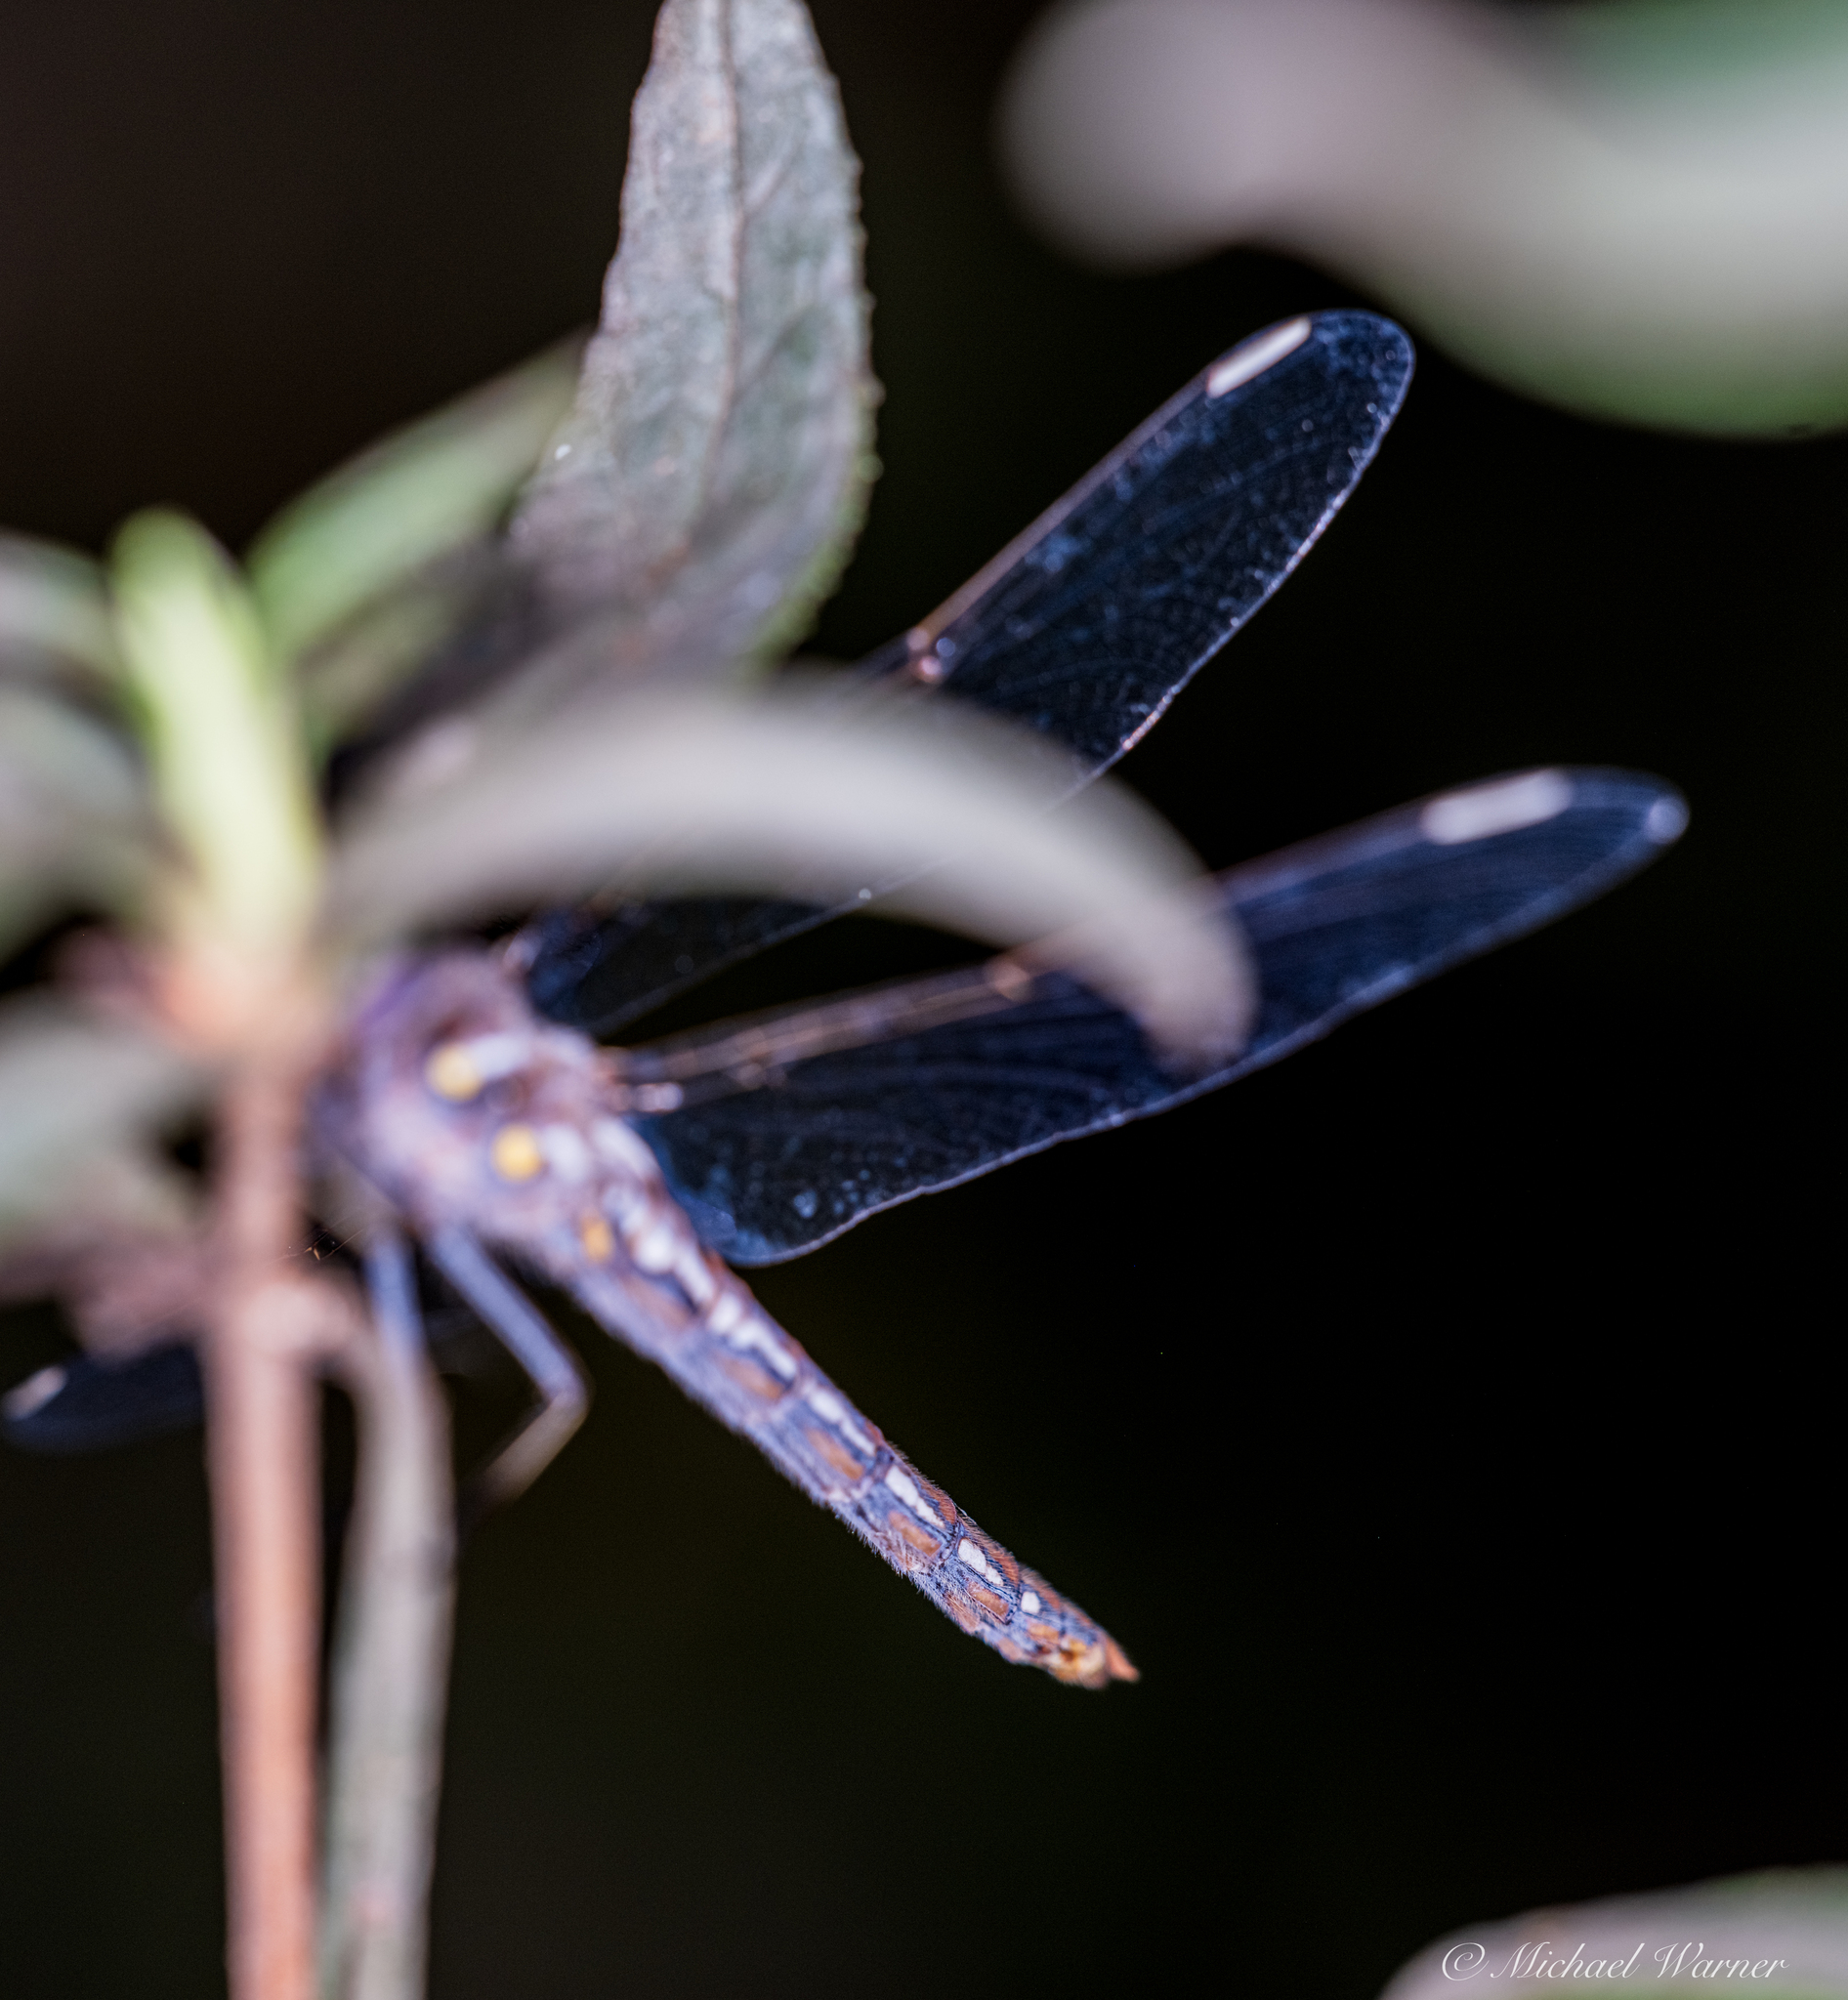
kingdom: Animalia
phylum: Arthropoda
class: Insecta
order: Odonata
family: Libellulidae
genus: Sympetrum
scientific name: Sympetrum corruptum
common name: Variegated meadowhawk
